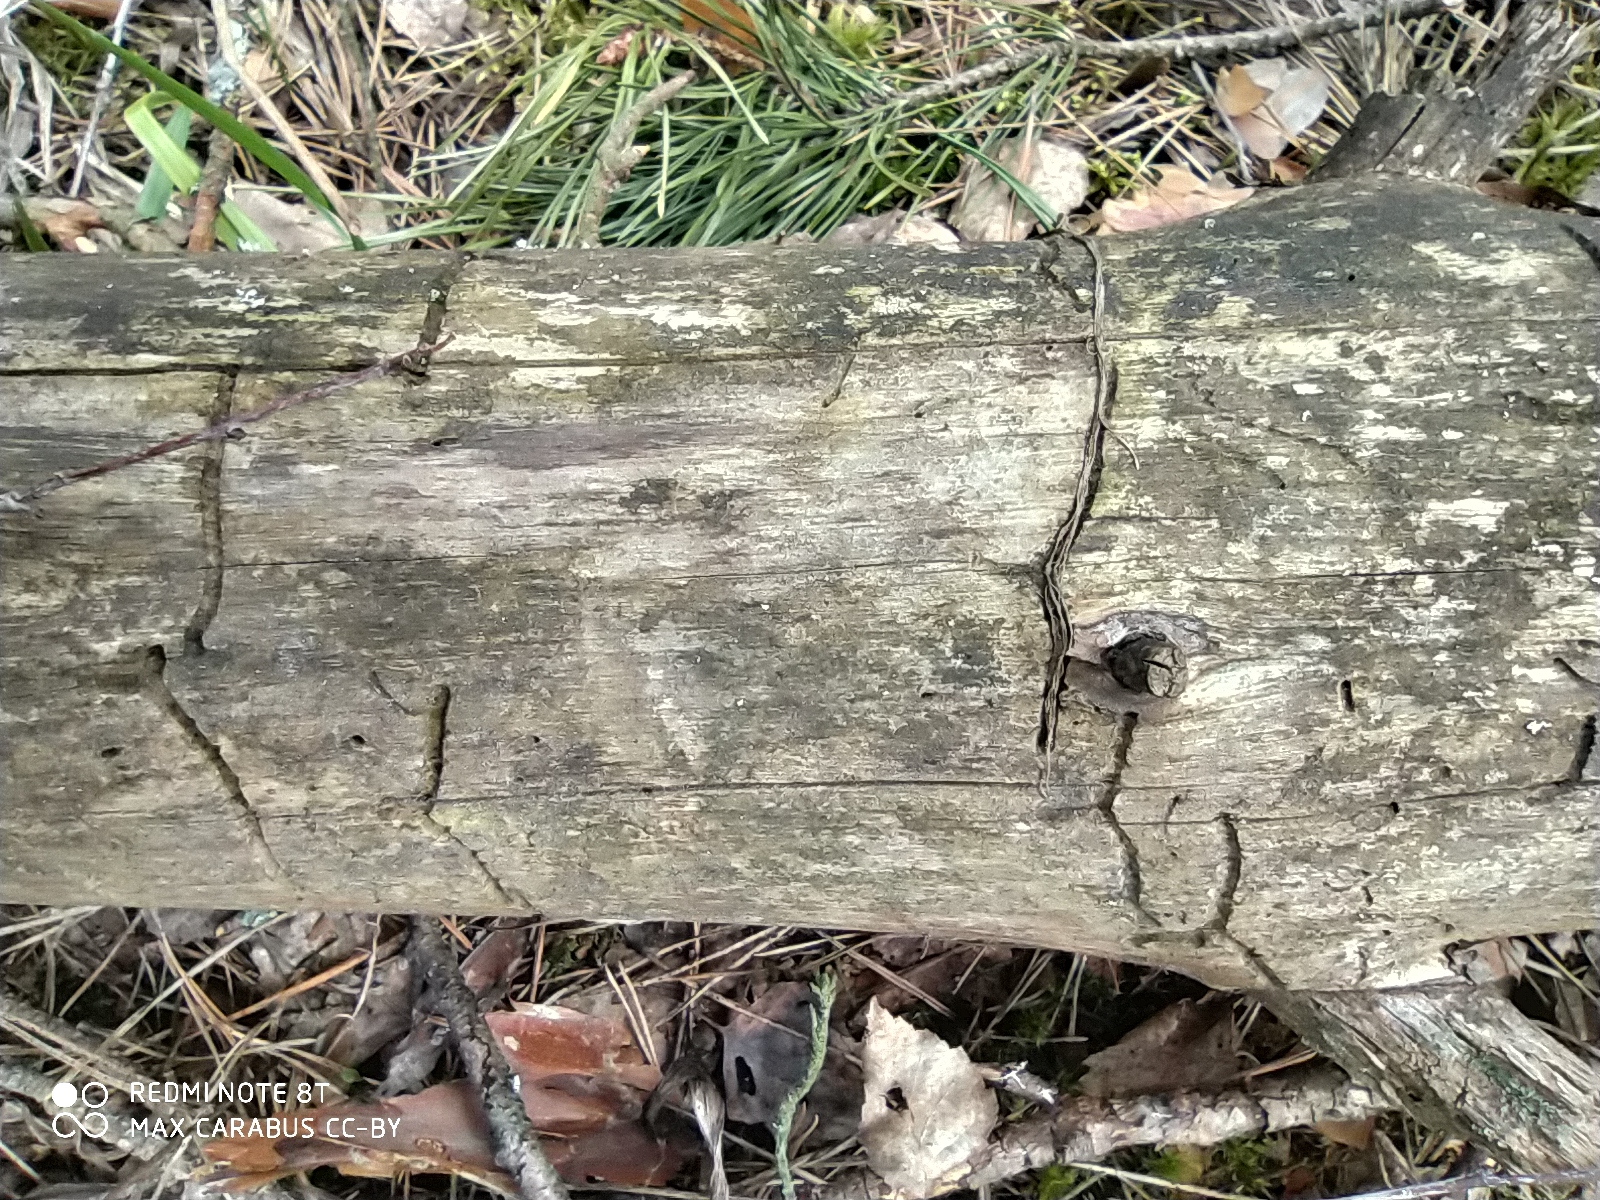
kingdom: Animalia
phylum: Arthropoda
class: Insecta
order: Coleoptera
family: Curculionidae
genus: Tomicus
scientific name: Tomicus minor
